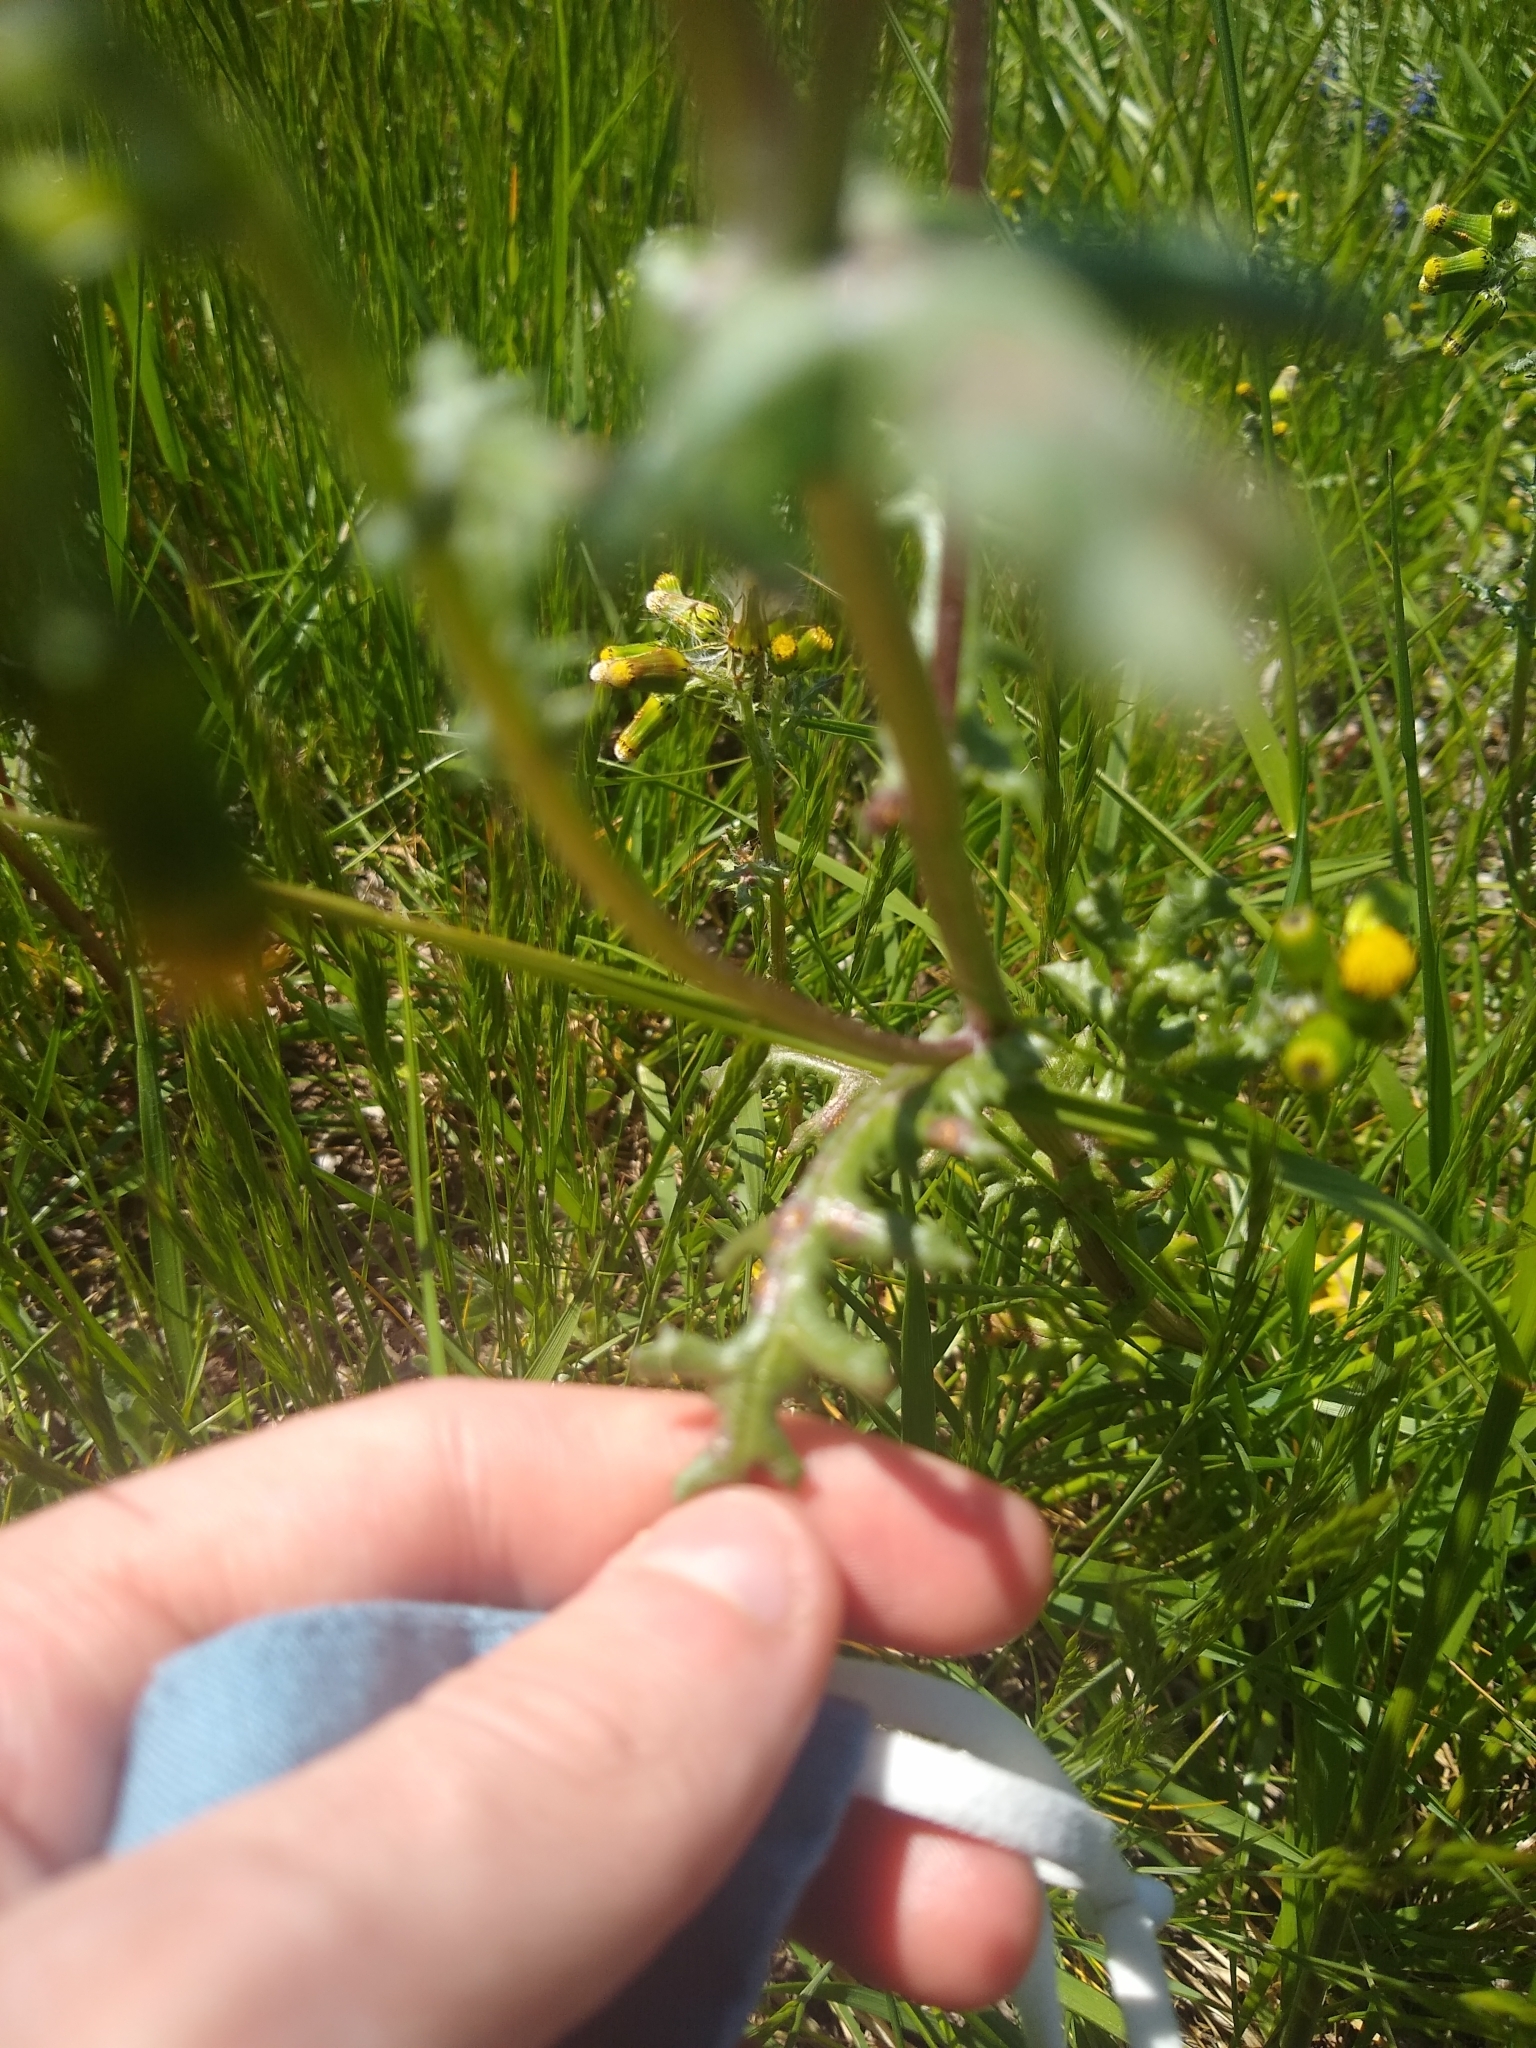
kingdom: Plantae
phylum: Tracheophyta
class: Magnoliopsida
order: Asterales
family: Asteraceae
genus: Senecio
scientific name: Senecio vulgaris
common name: Old-man-in-the-spring
